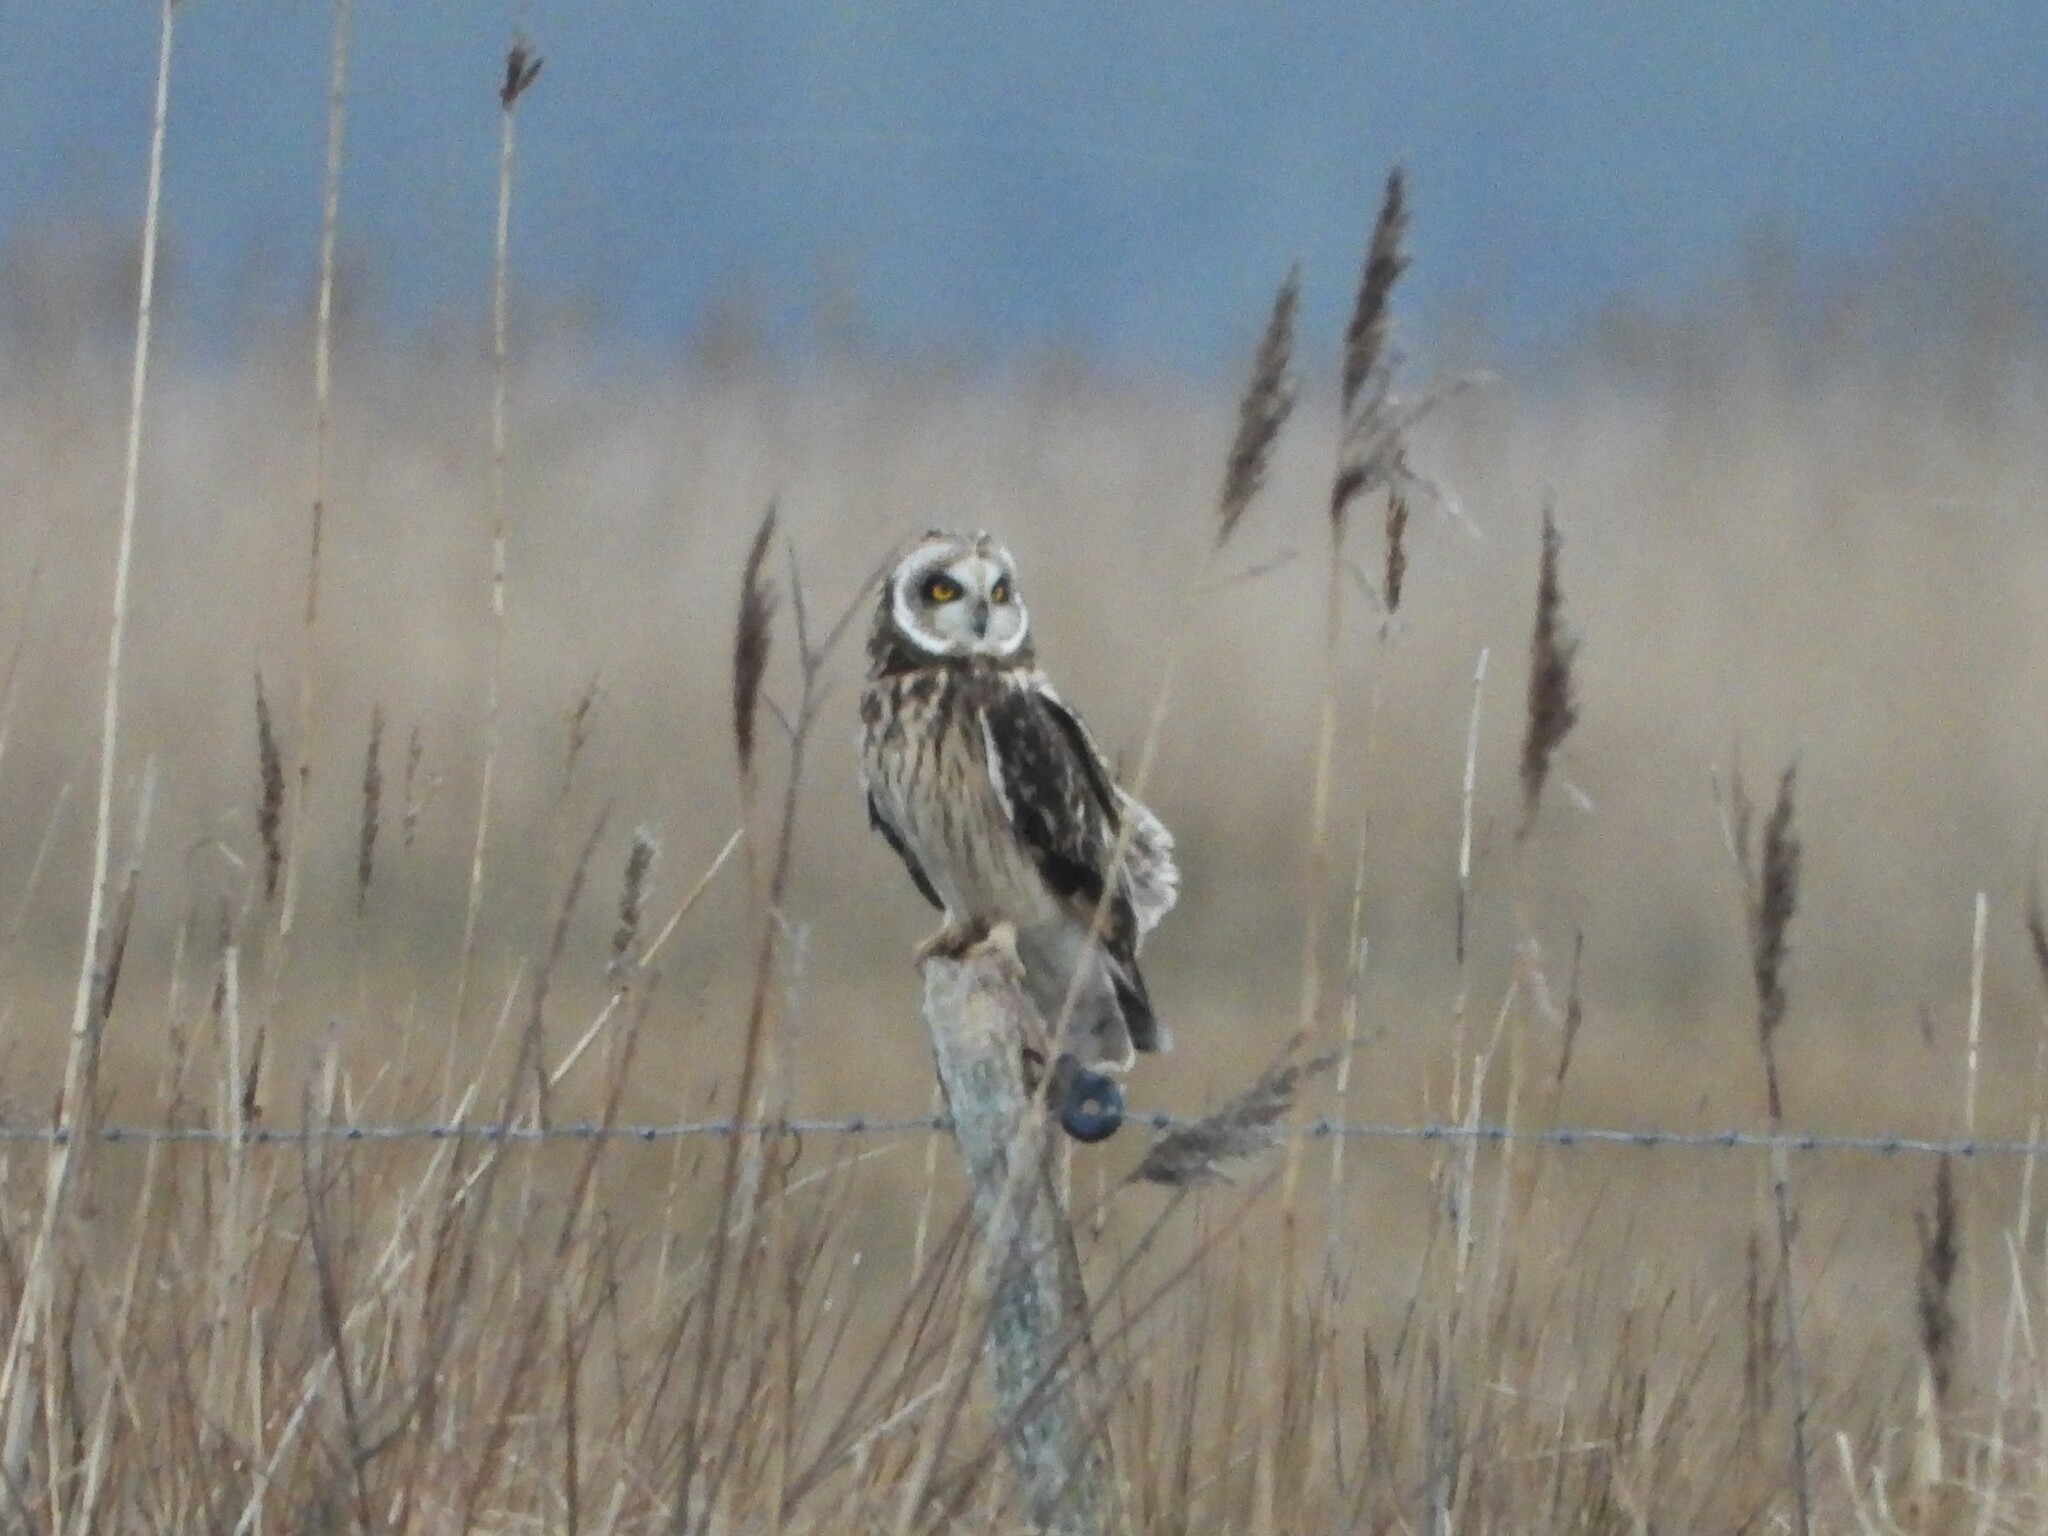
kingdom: Animalia
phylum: Chordata
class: Aves
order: Strigiformes
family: Strigidae
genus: Asio
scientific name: Asio flammeus
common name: Short-eared owl
